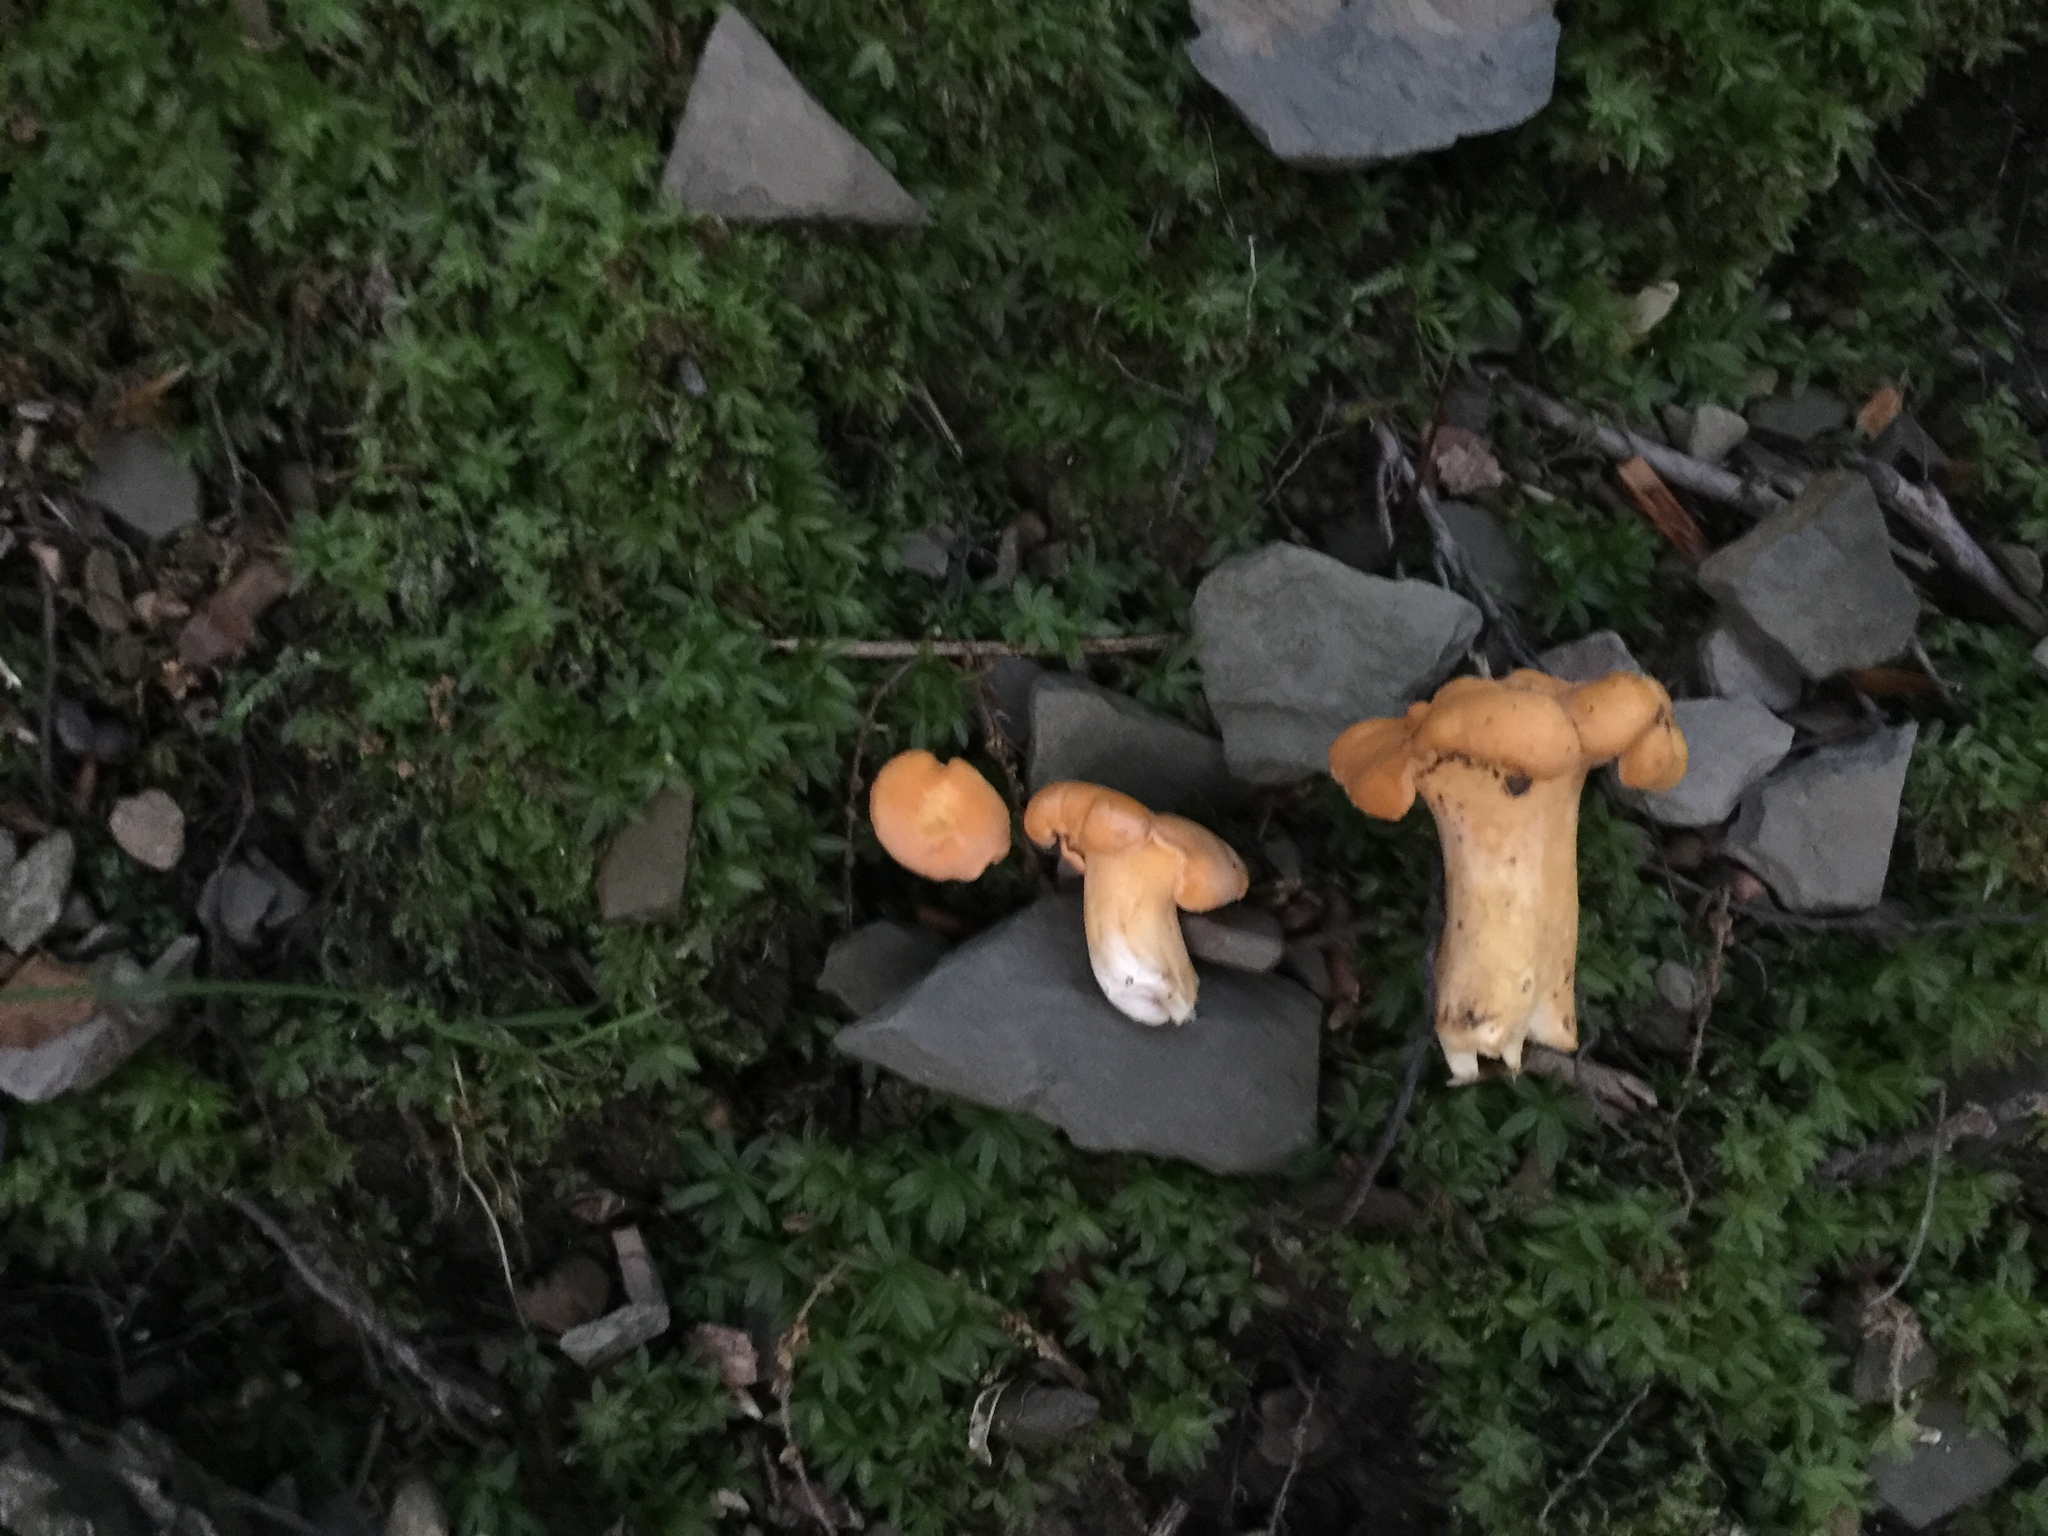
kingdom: Fungi
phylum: Basidiomycota
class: Agaricomycetes
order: Cantharellales
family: Hydnaceae
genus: Cantharellus
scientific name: Cantharellus lateritius
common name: Smooth chanterelle
